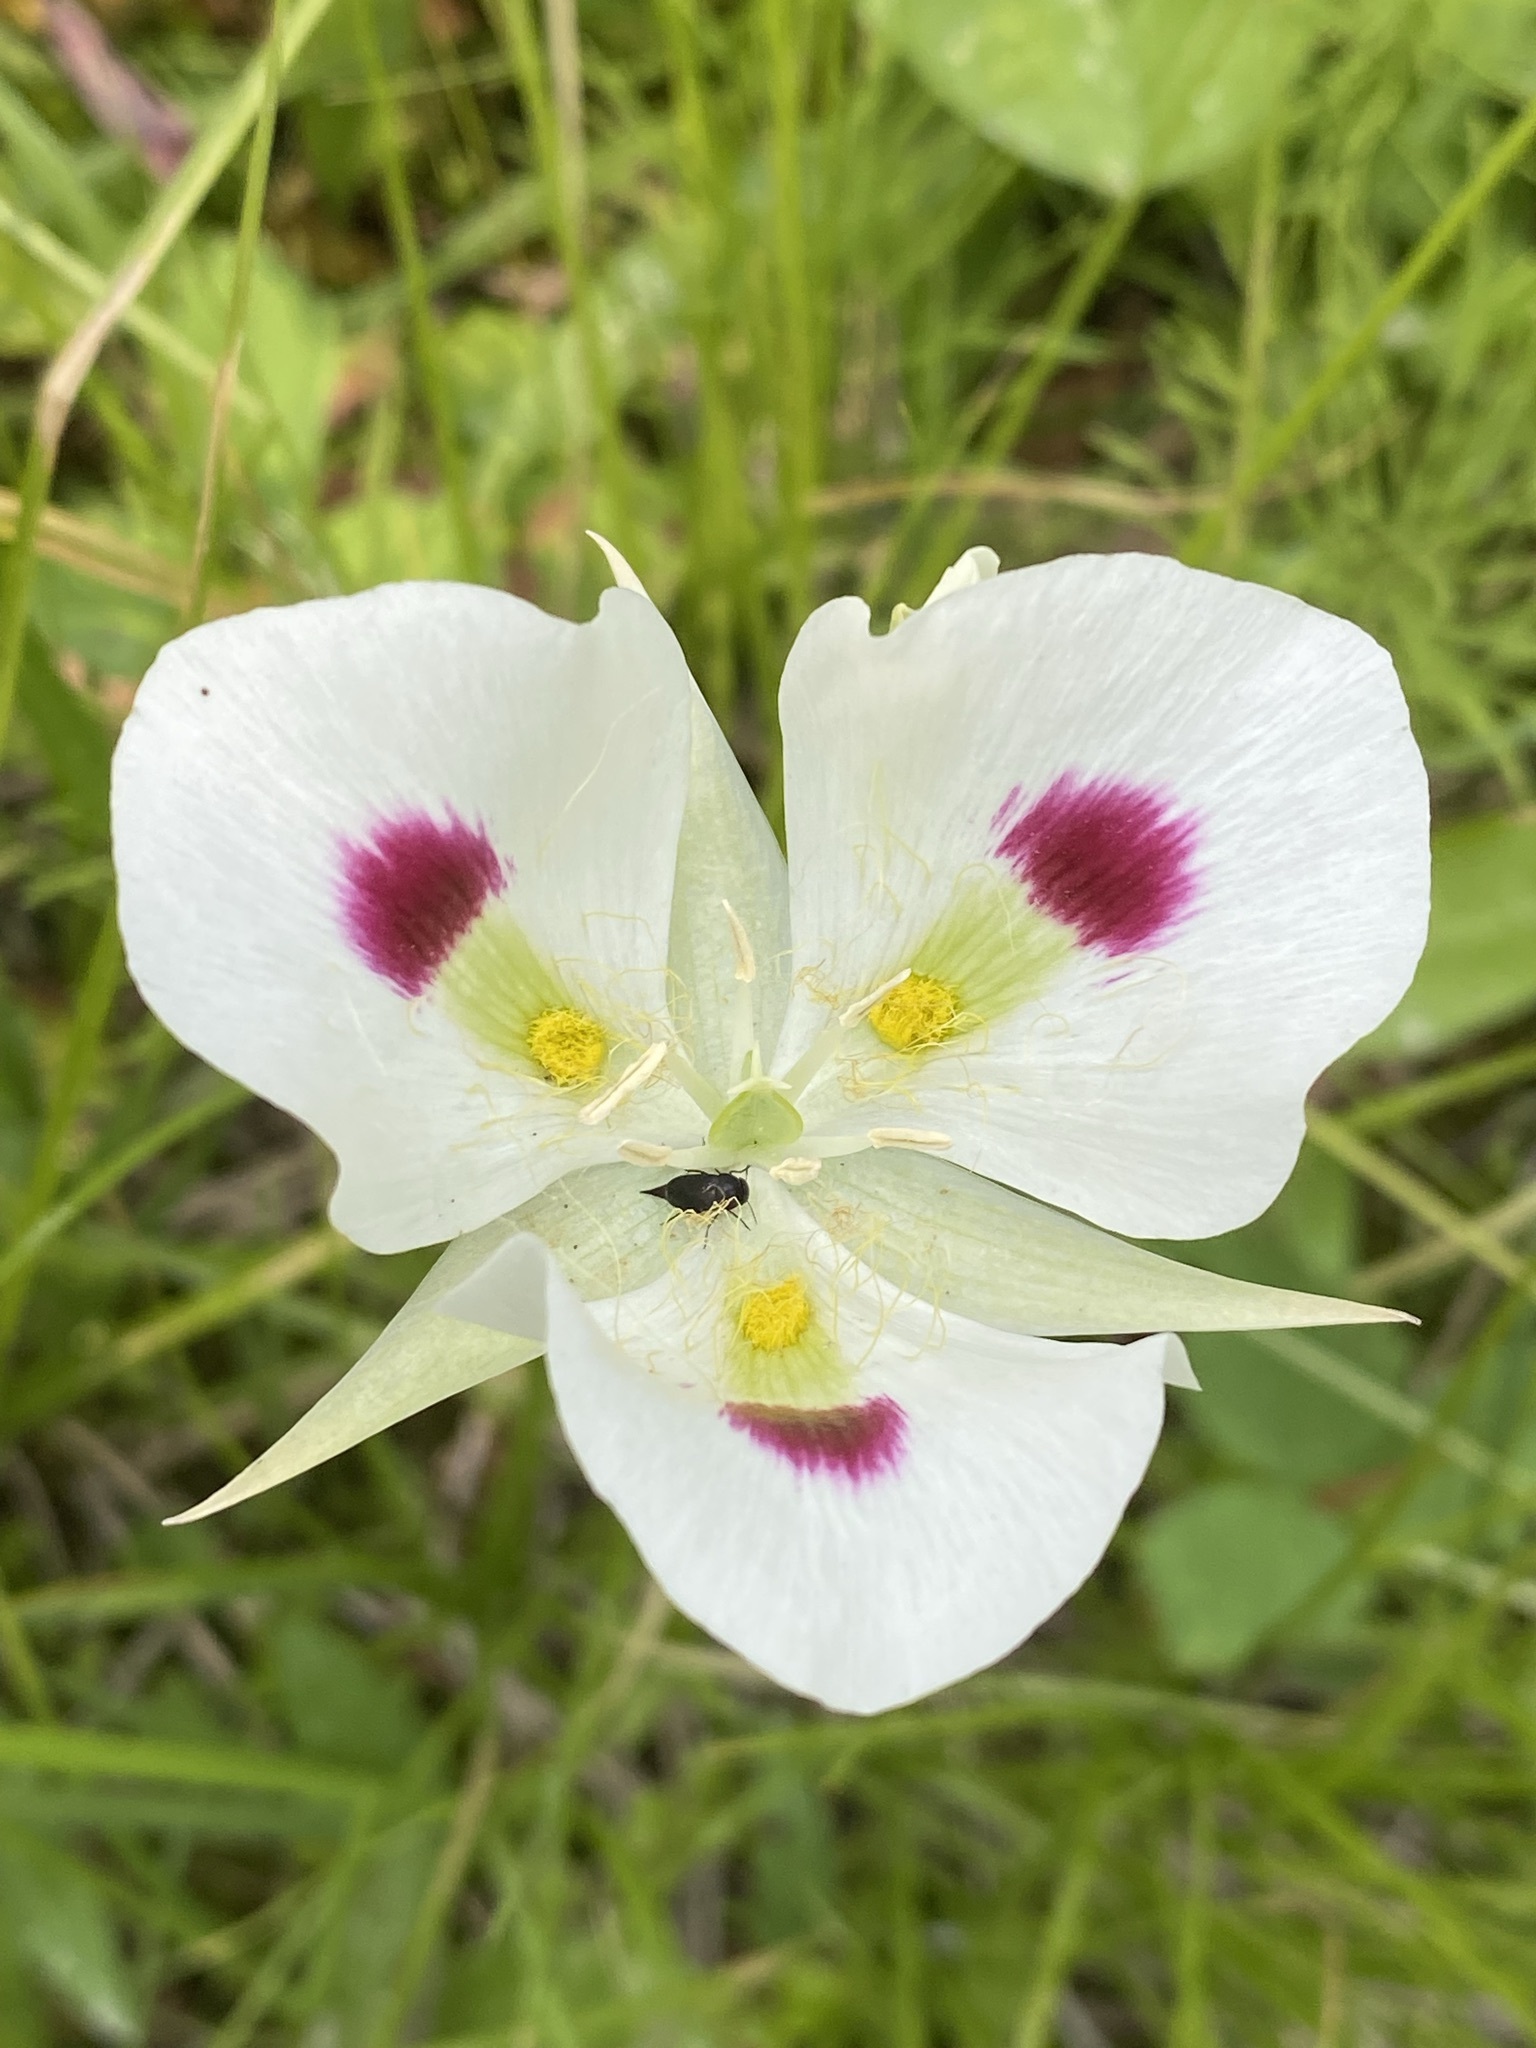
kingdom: Plantae
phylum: Tracheophyta
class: Liliopsida
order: Liliales
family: Liliaceae
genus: Calochortus
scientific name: Calochortus eurycarpus
